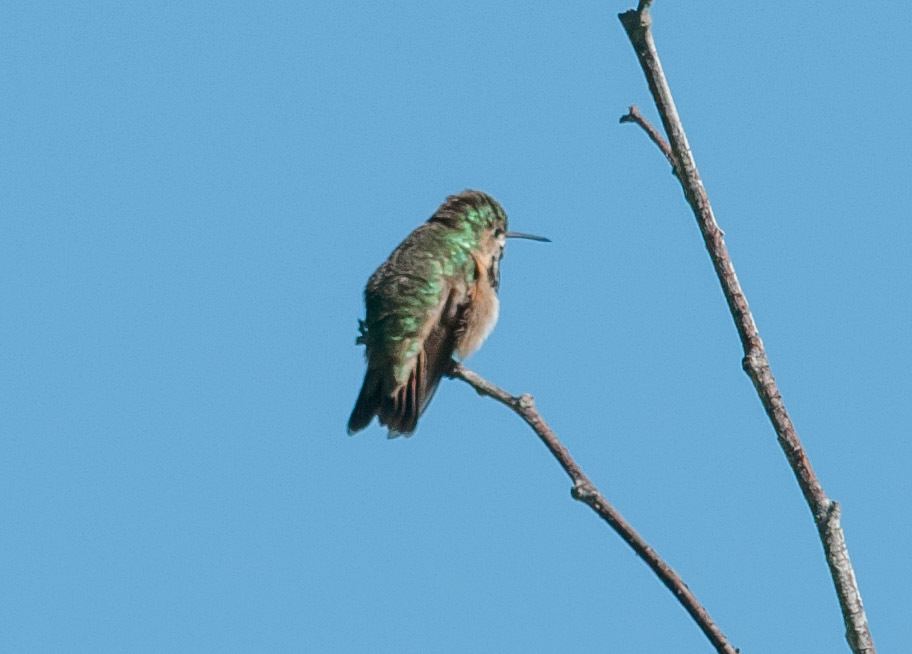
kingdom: Animalia
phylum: Chordata
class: Aves
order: Apodiformes
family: Trochilidae
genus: Selasphorus
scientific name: Selasphorus calliope
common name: Calliope hummingbird
